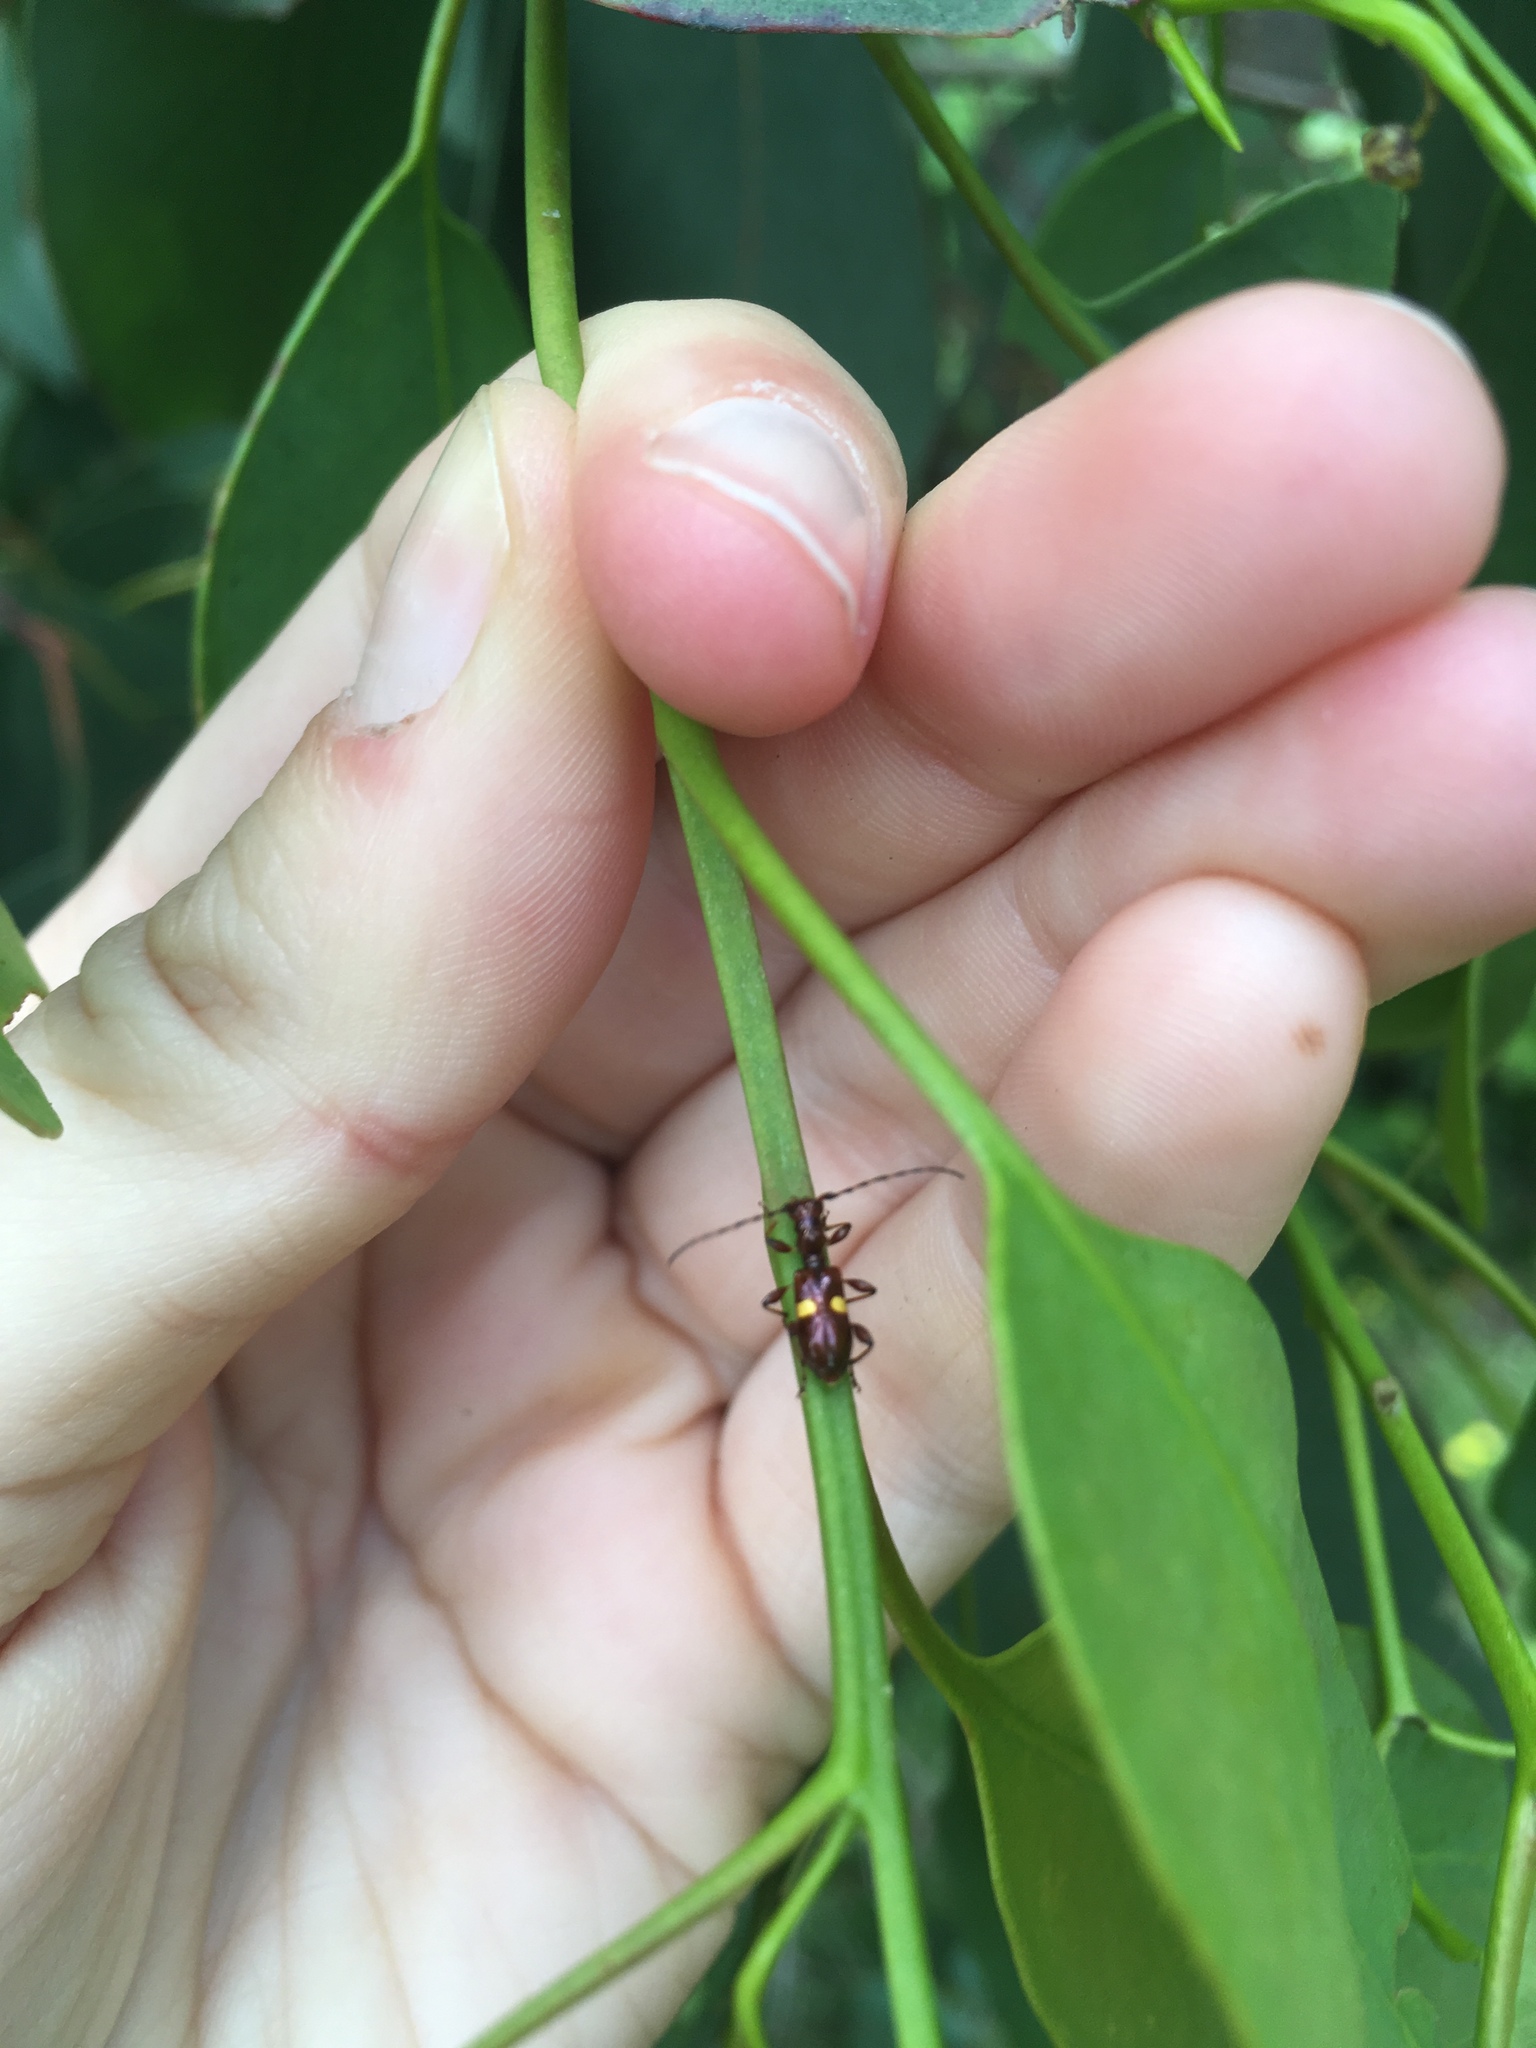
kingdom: Animalia
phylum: Arthropoda
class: Insecta
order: Coleoptera
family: Cerambycidae
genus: Zorion
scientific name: Zorion guttigerum
